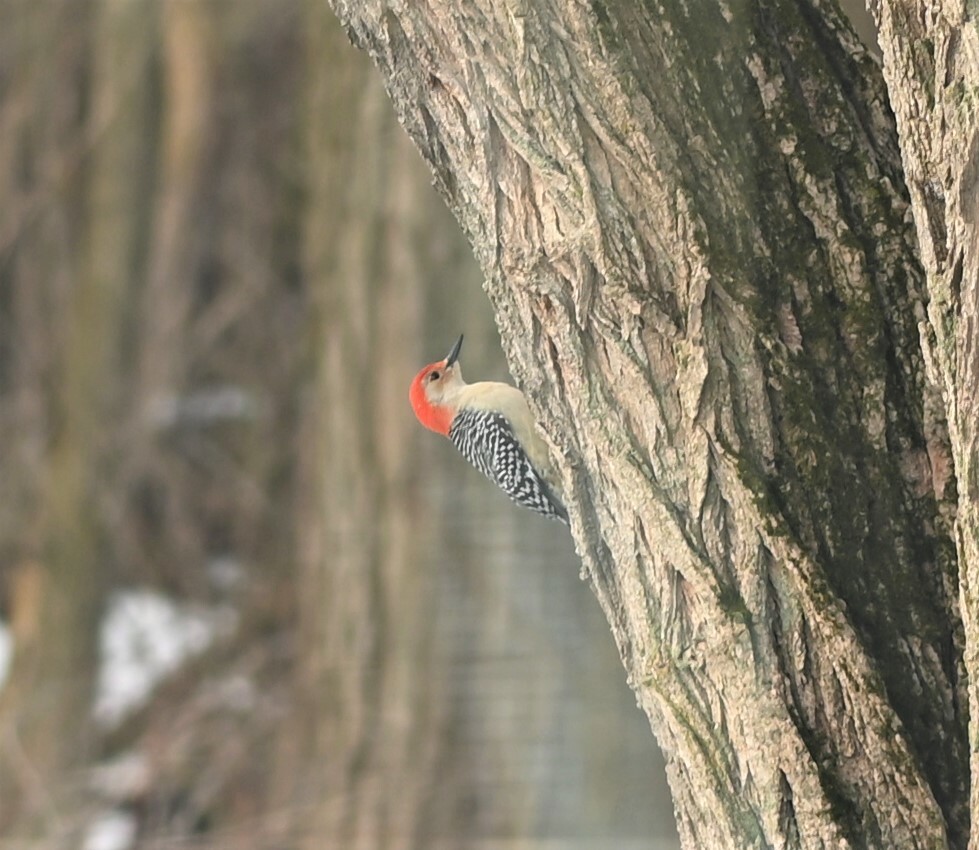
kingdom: Animalia
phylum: Chordata
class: Aves
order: Piciformes
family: Picidae
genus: Melanerpes
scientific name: Melanerpes carolinus
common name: Red-bellied woodpecker
